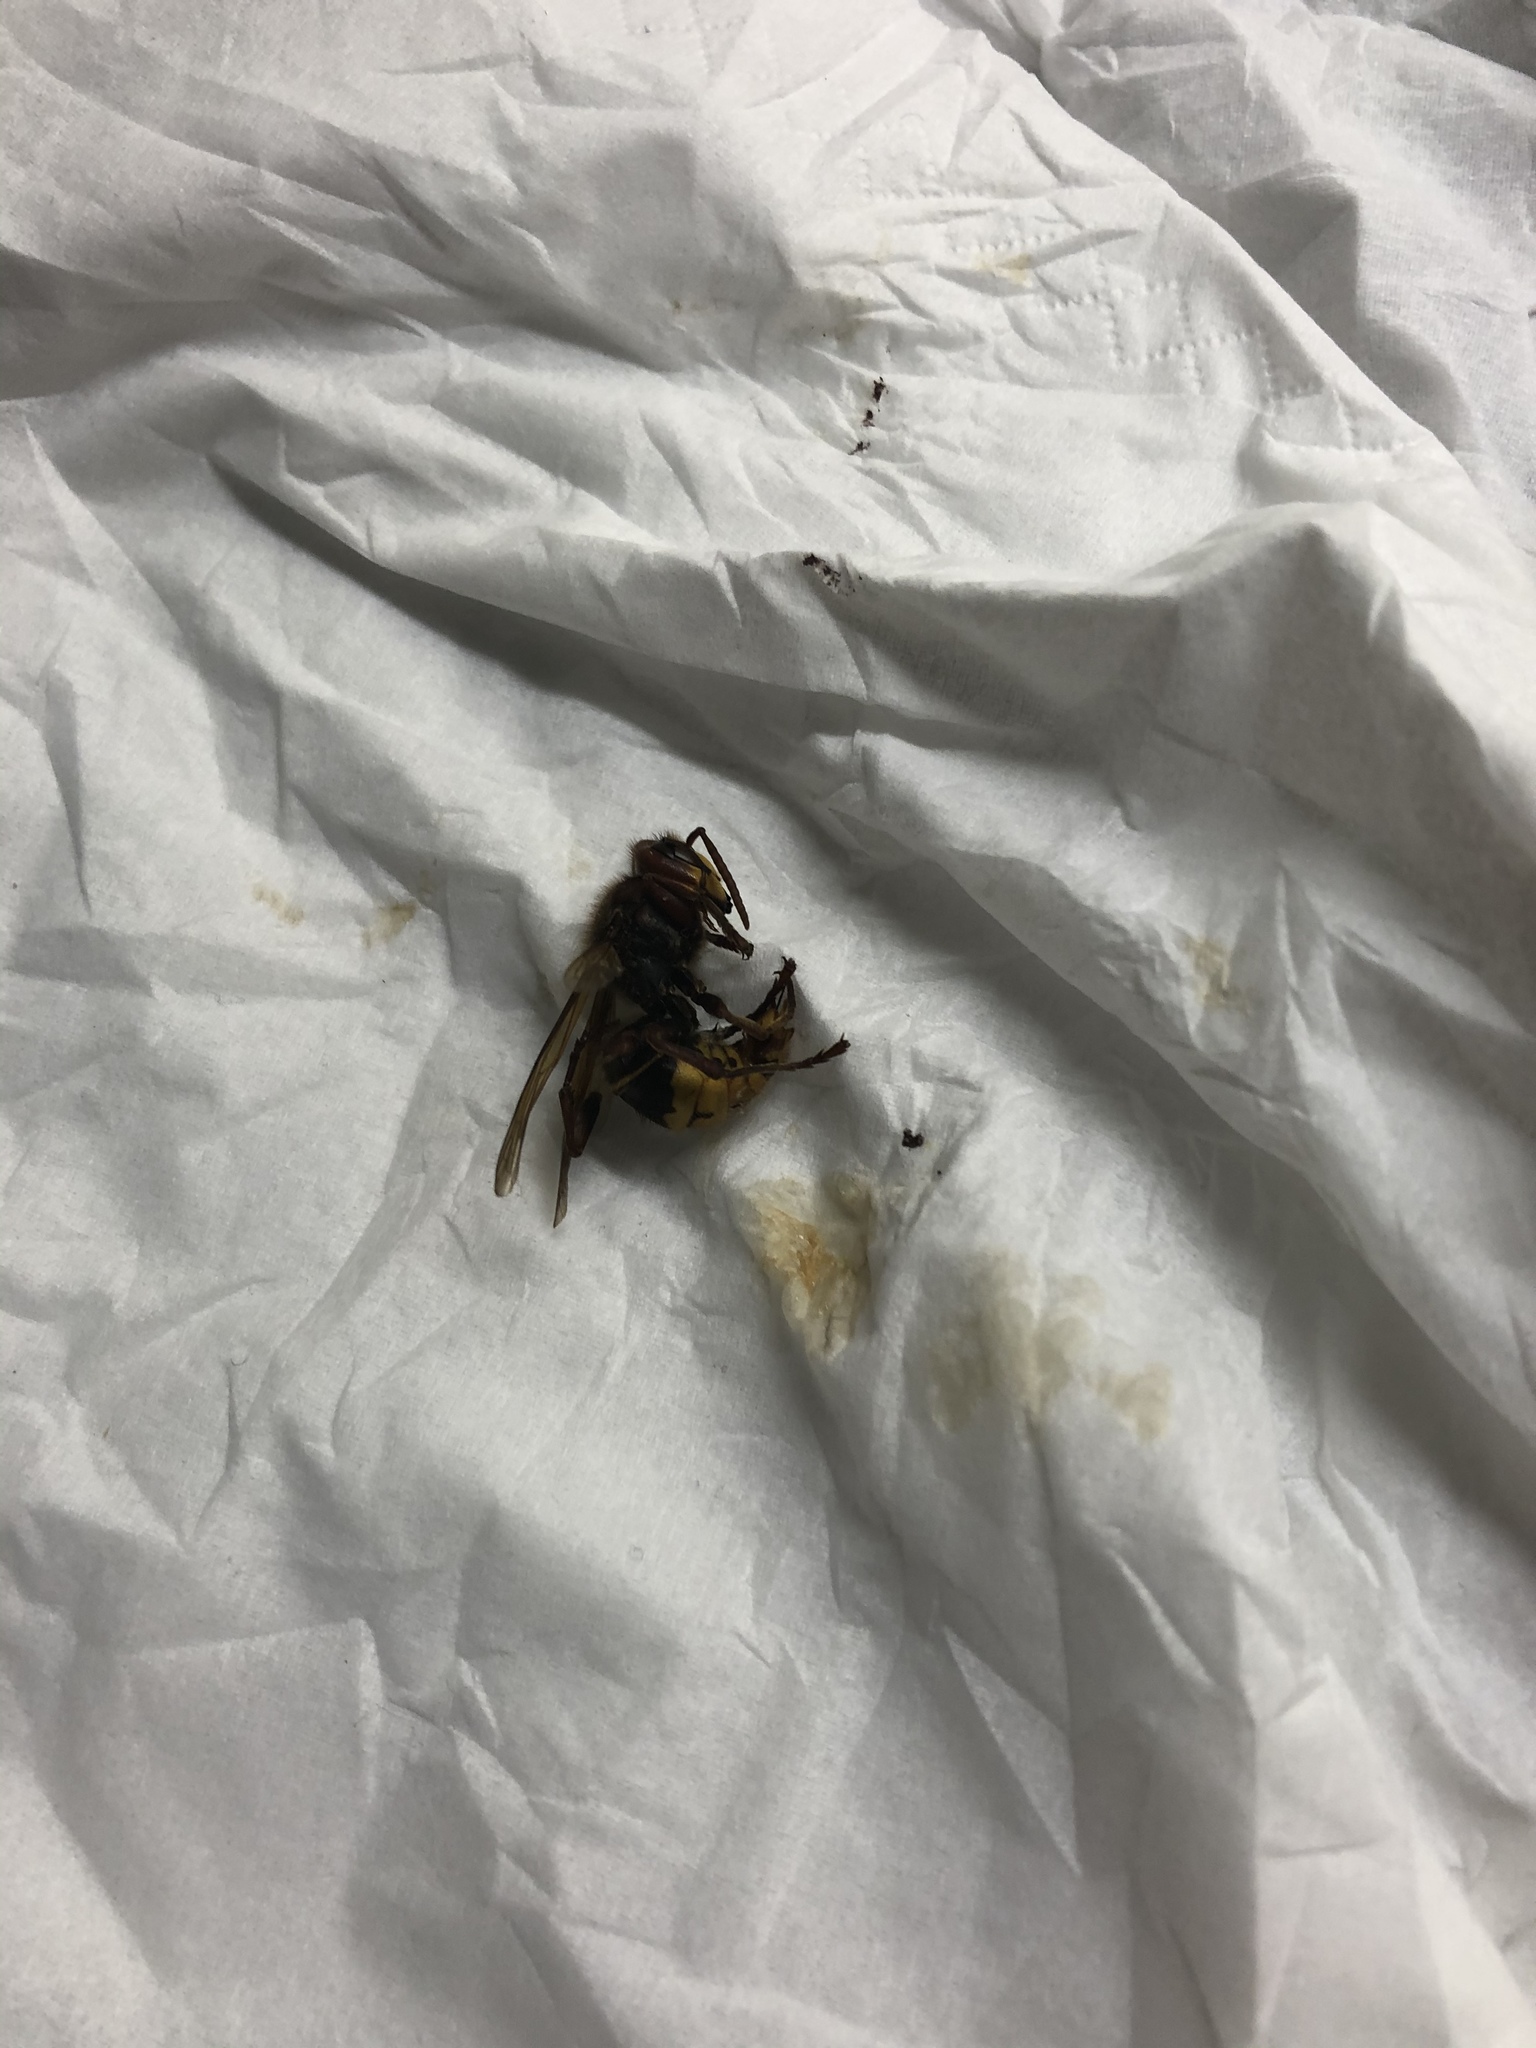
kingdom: Animalia
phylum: Arthropoda
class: Insecta
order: Hymenoptera
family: Vespidae
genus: Vespa
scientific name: Vespa crabro
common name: Hornet
